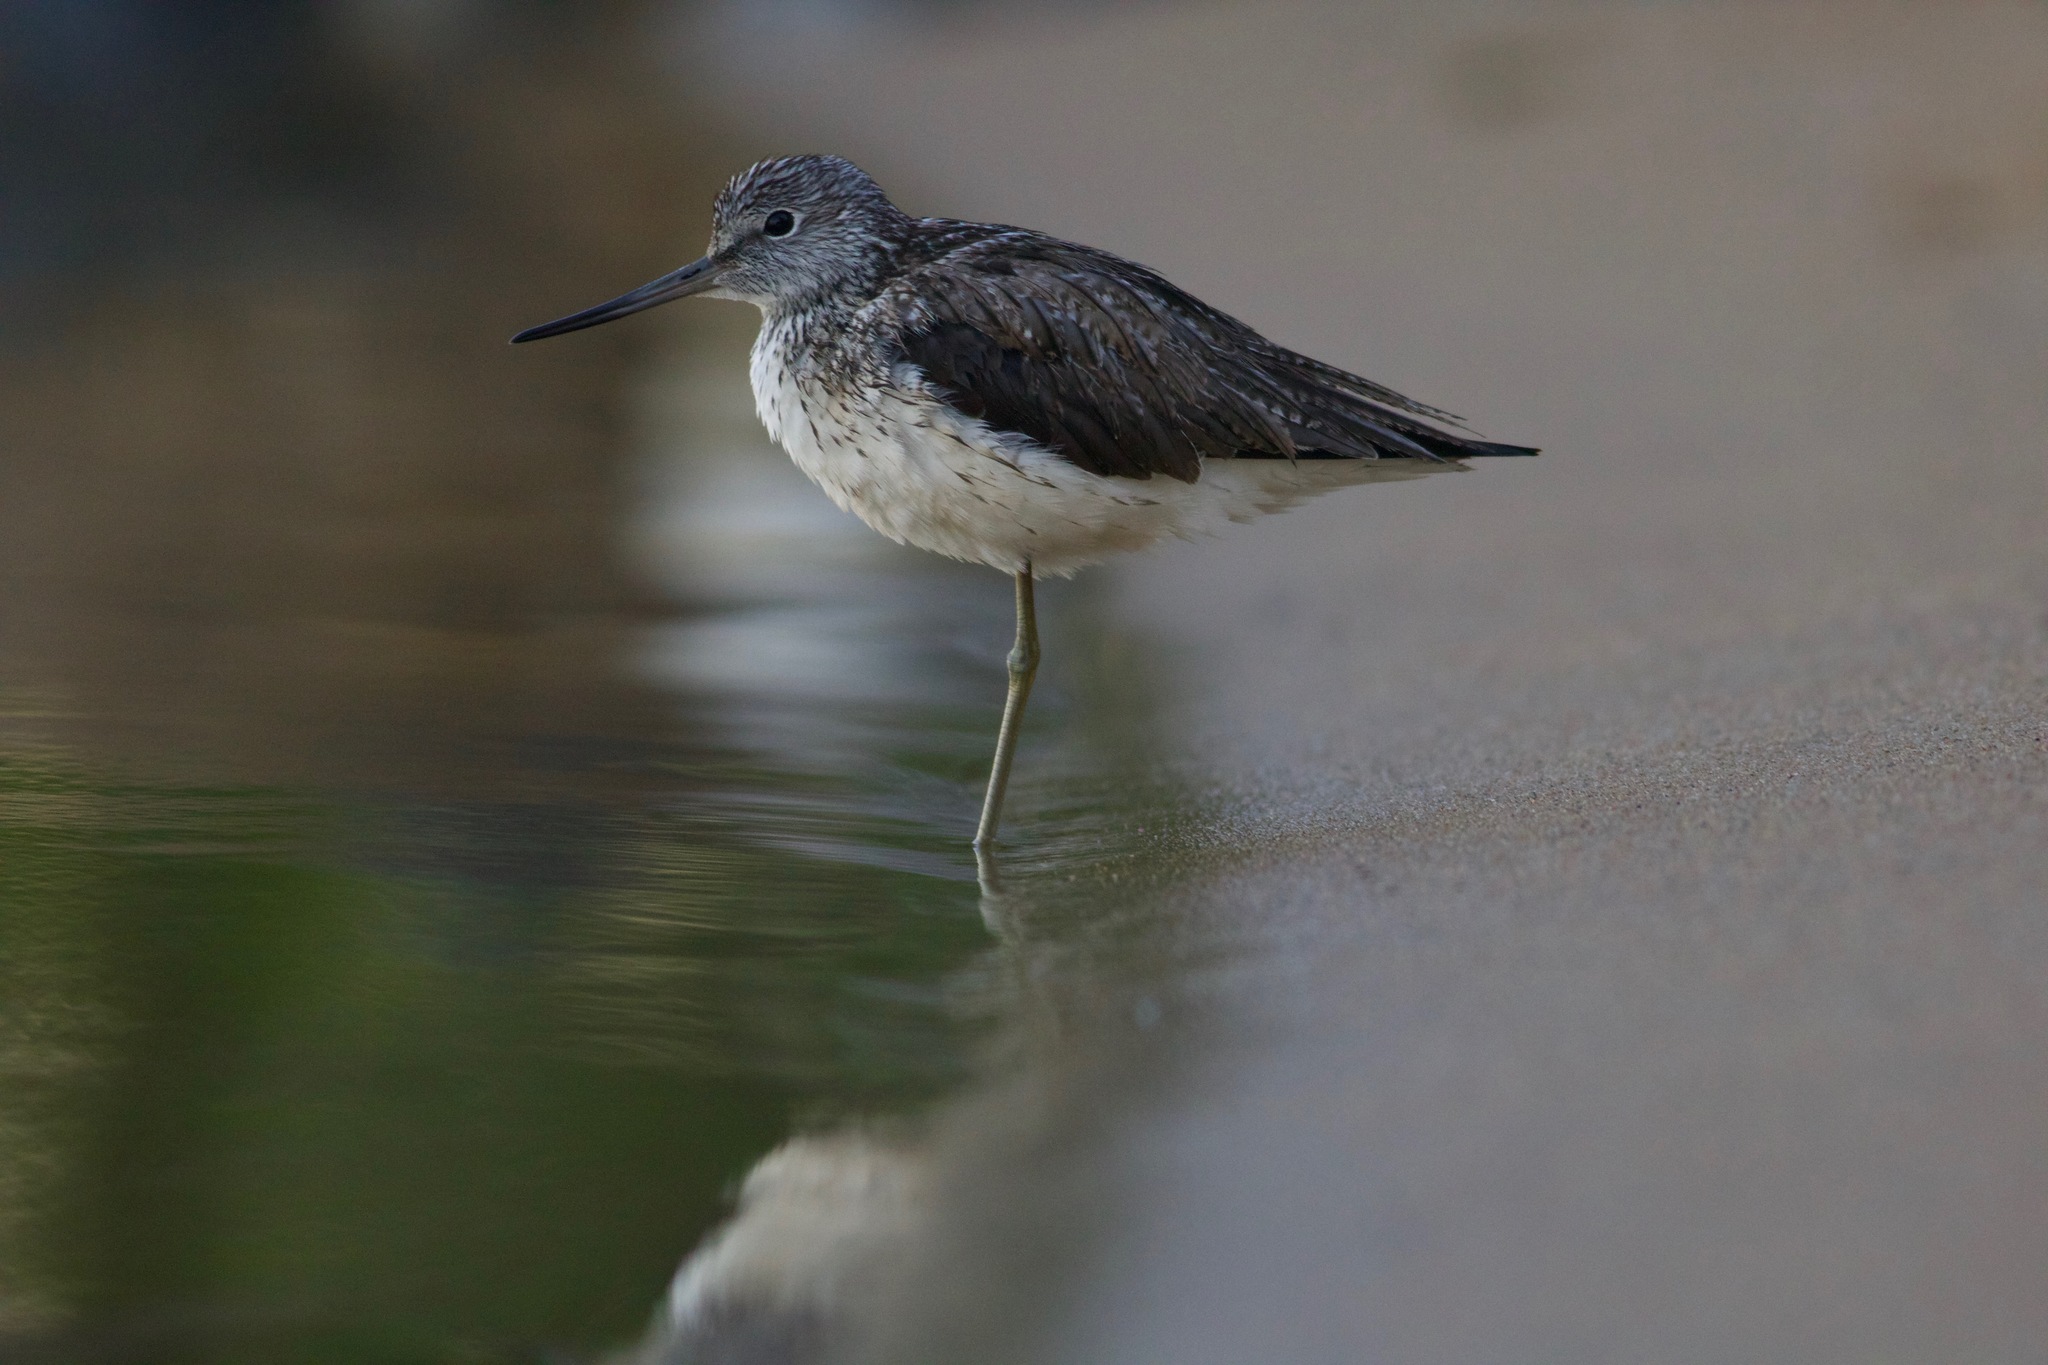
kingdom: Animalia
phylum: Chordata
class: Aves
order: Charadriiformes
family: Scolopacidae
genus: Tringa
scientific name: Tringa nebularia
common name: Common greenshank
